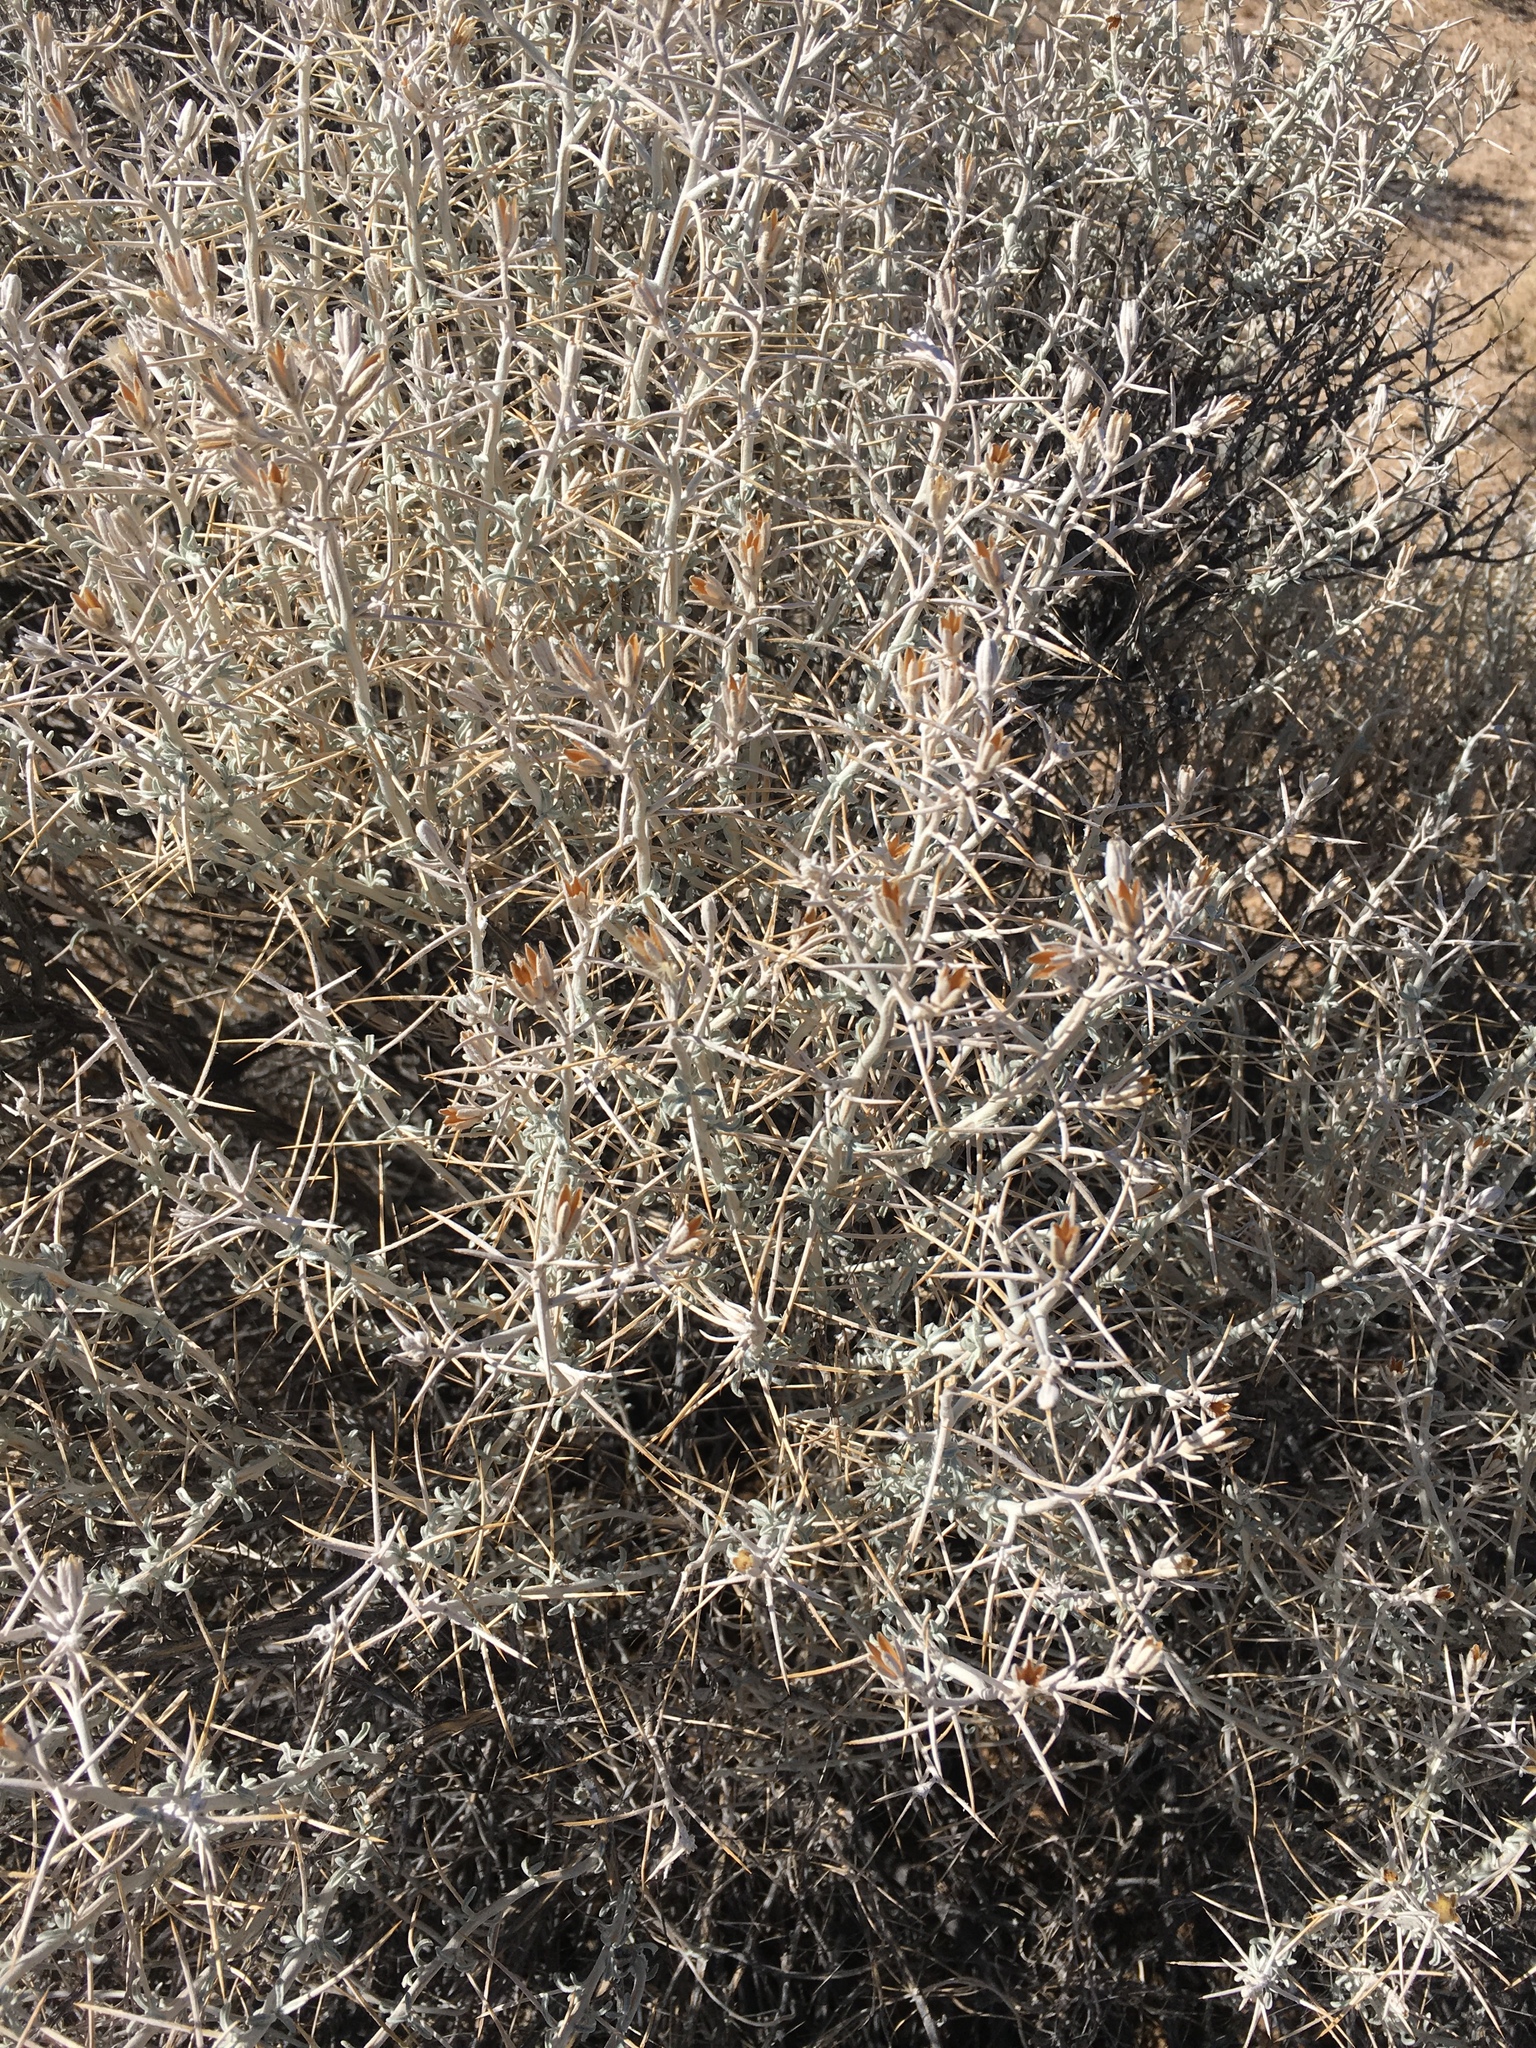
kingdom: Plantae
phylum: Tracheophyta
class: Magnoliopsida
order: Asterales
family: Asteraceae
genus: Tetradymia
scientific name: Tetradymia stenolepis
